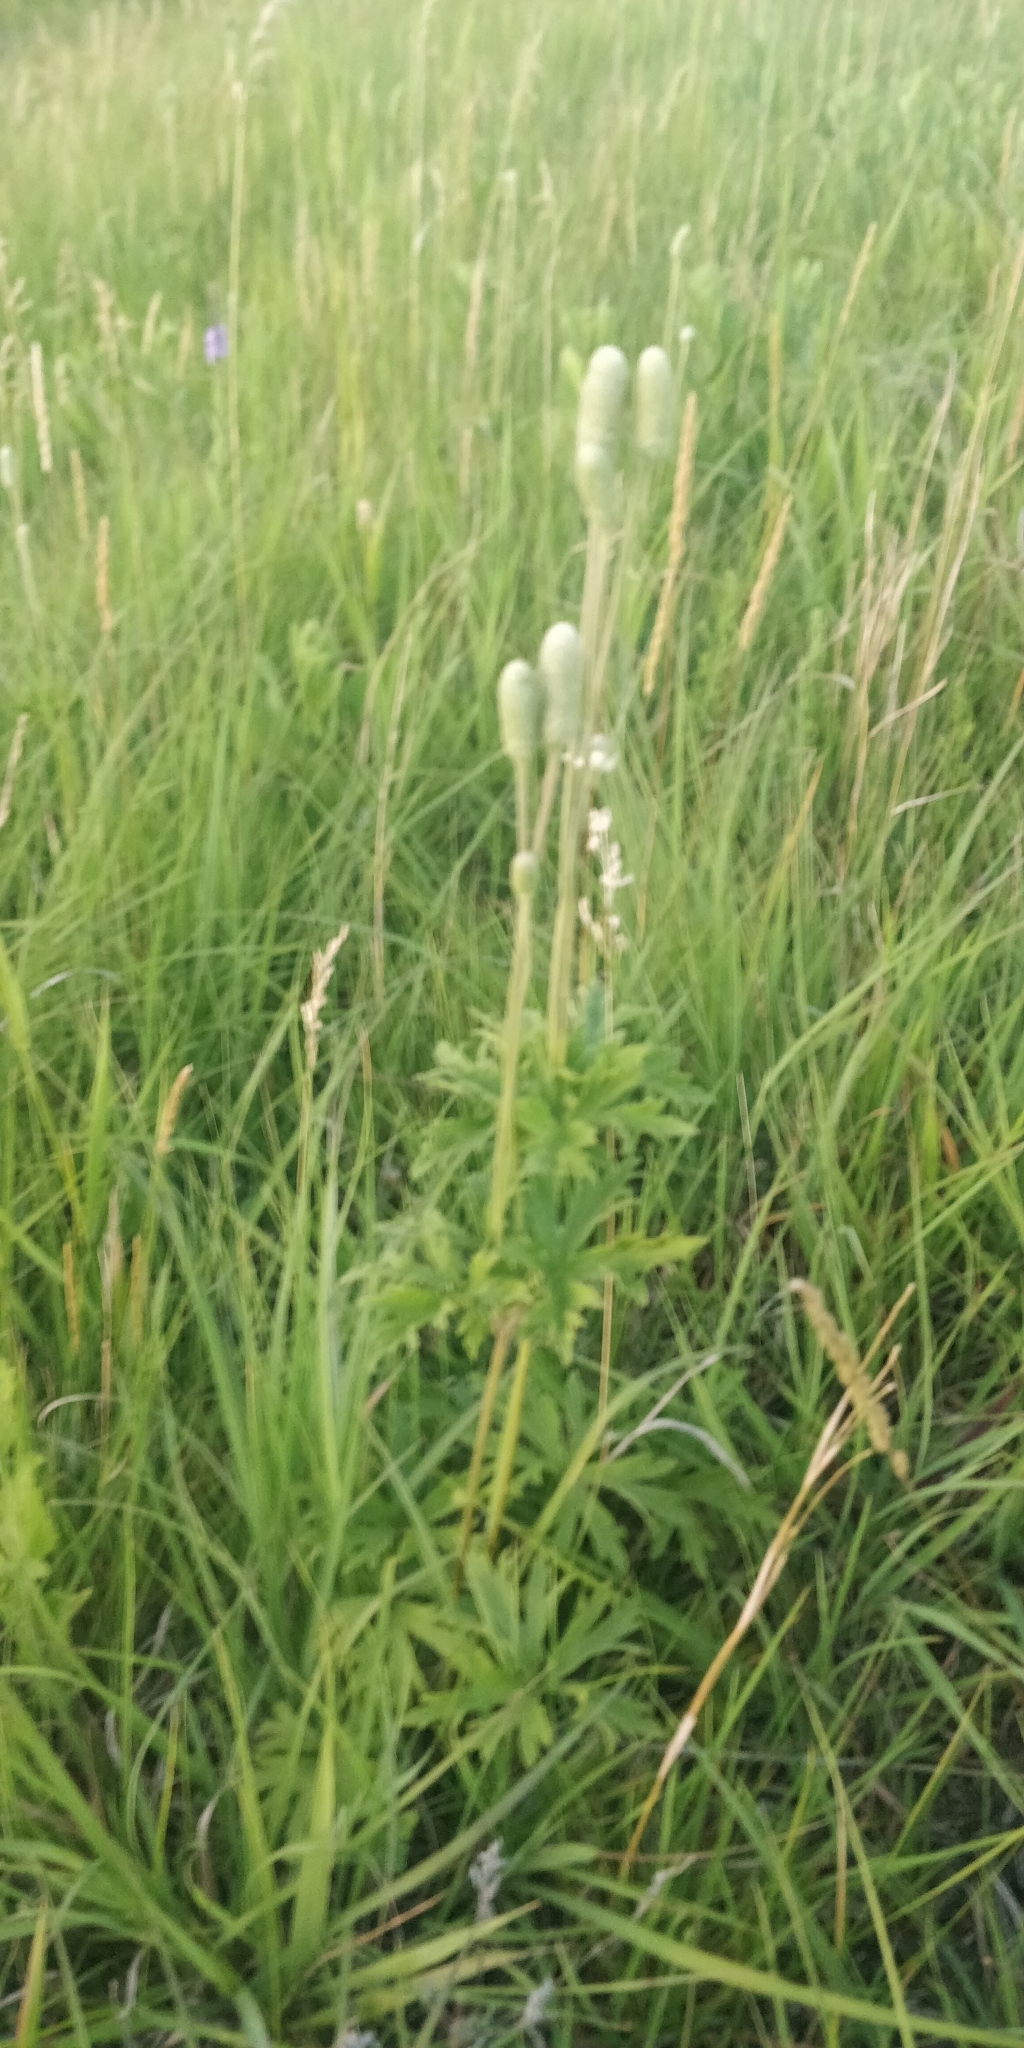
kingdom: Plantae
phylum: Tracheophyta
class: Magnoliopsida
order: Ranunculales
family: Ranunculaceae
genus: Anemone
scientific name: Anemone cylindrica
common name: Candle anemone
